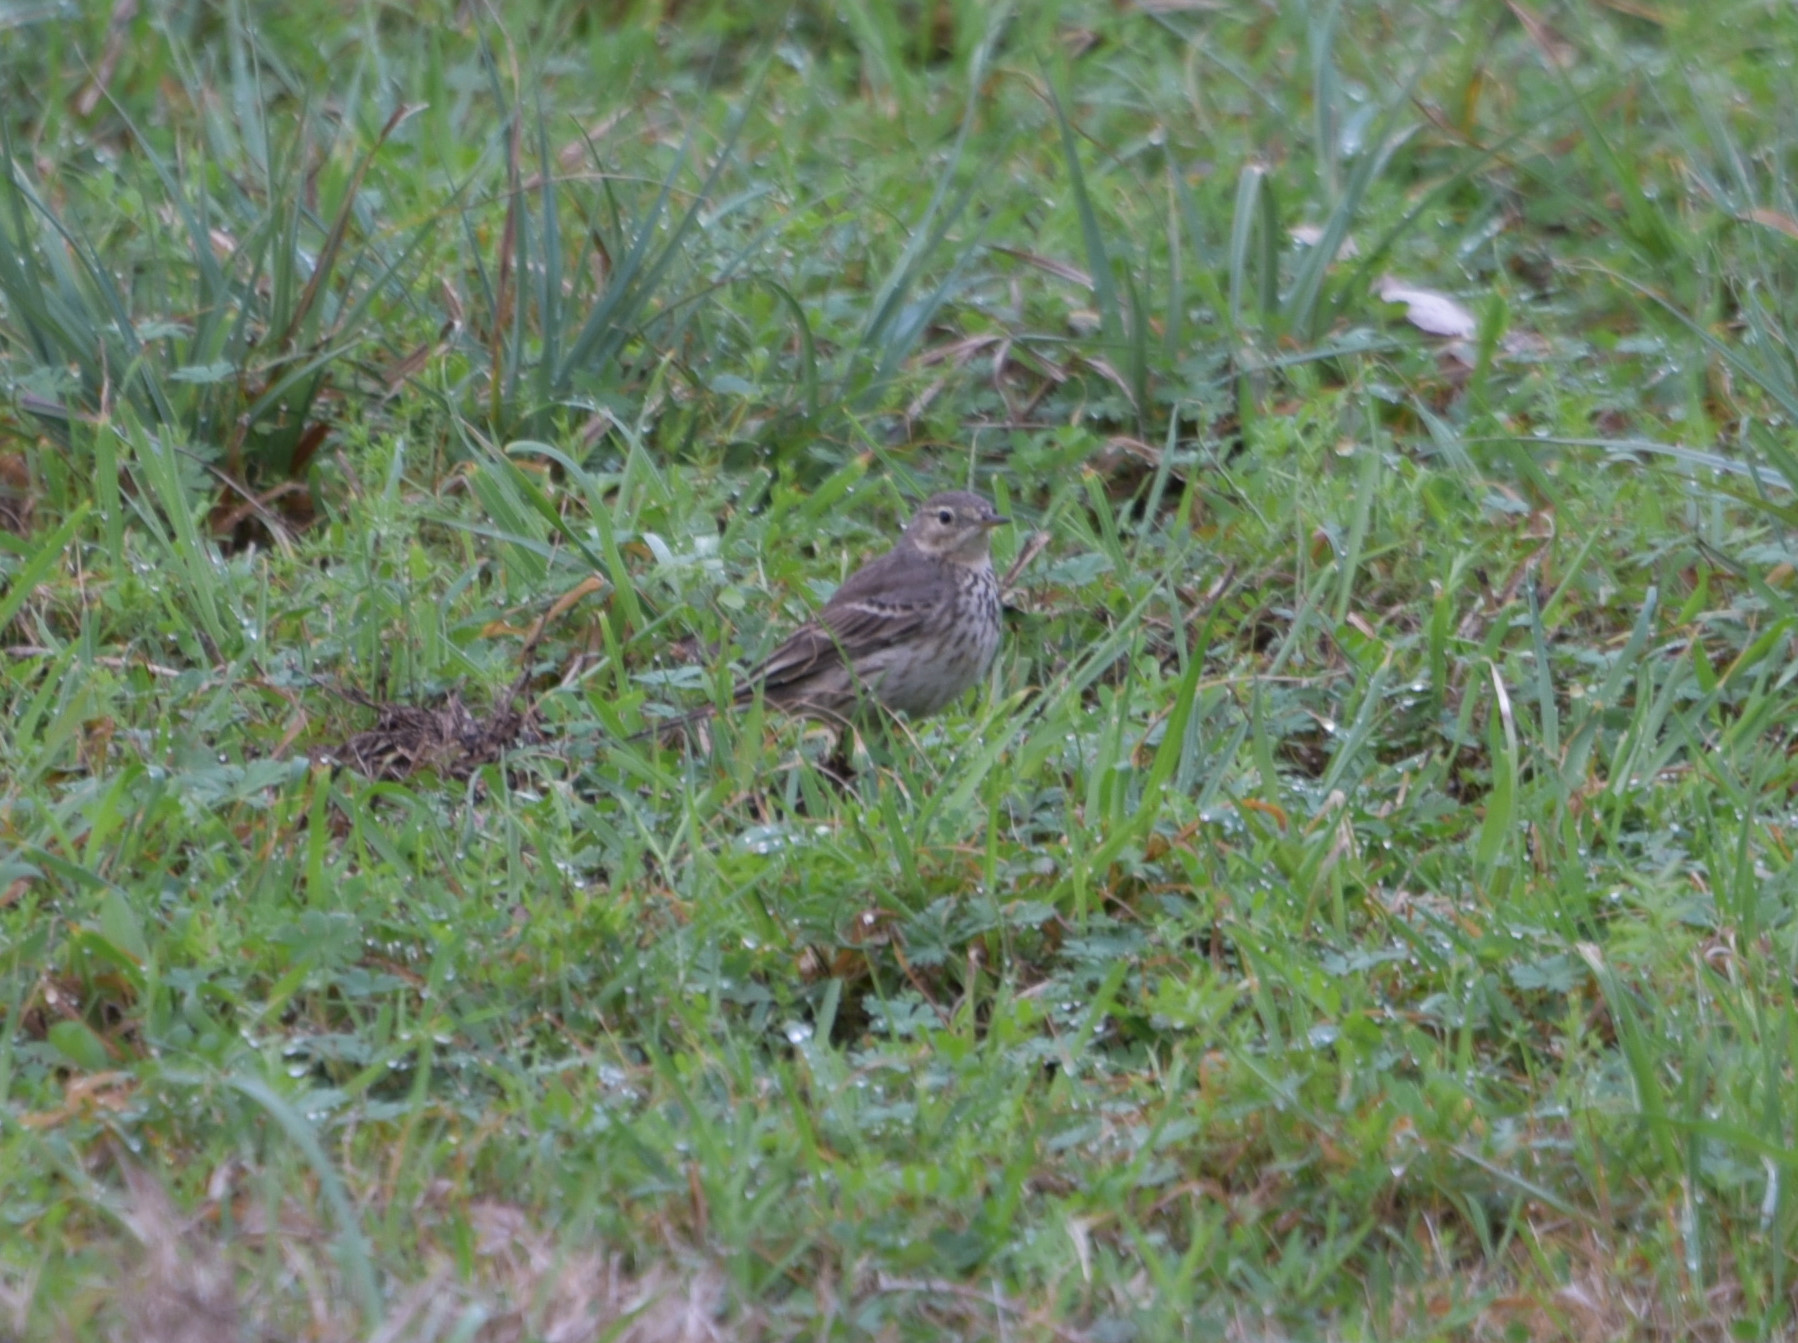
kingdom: Animalia
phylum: Chordata
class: Aves
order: Passeriformes
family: Motacillidae
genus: Anthus
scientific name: Anthus rubescens
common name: Buff-bellied pipit
